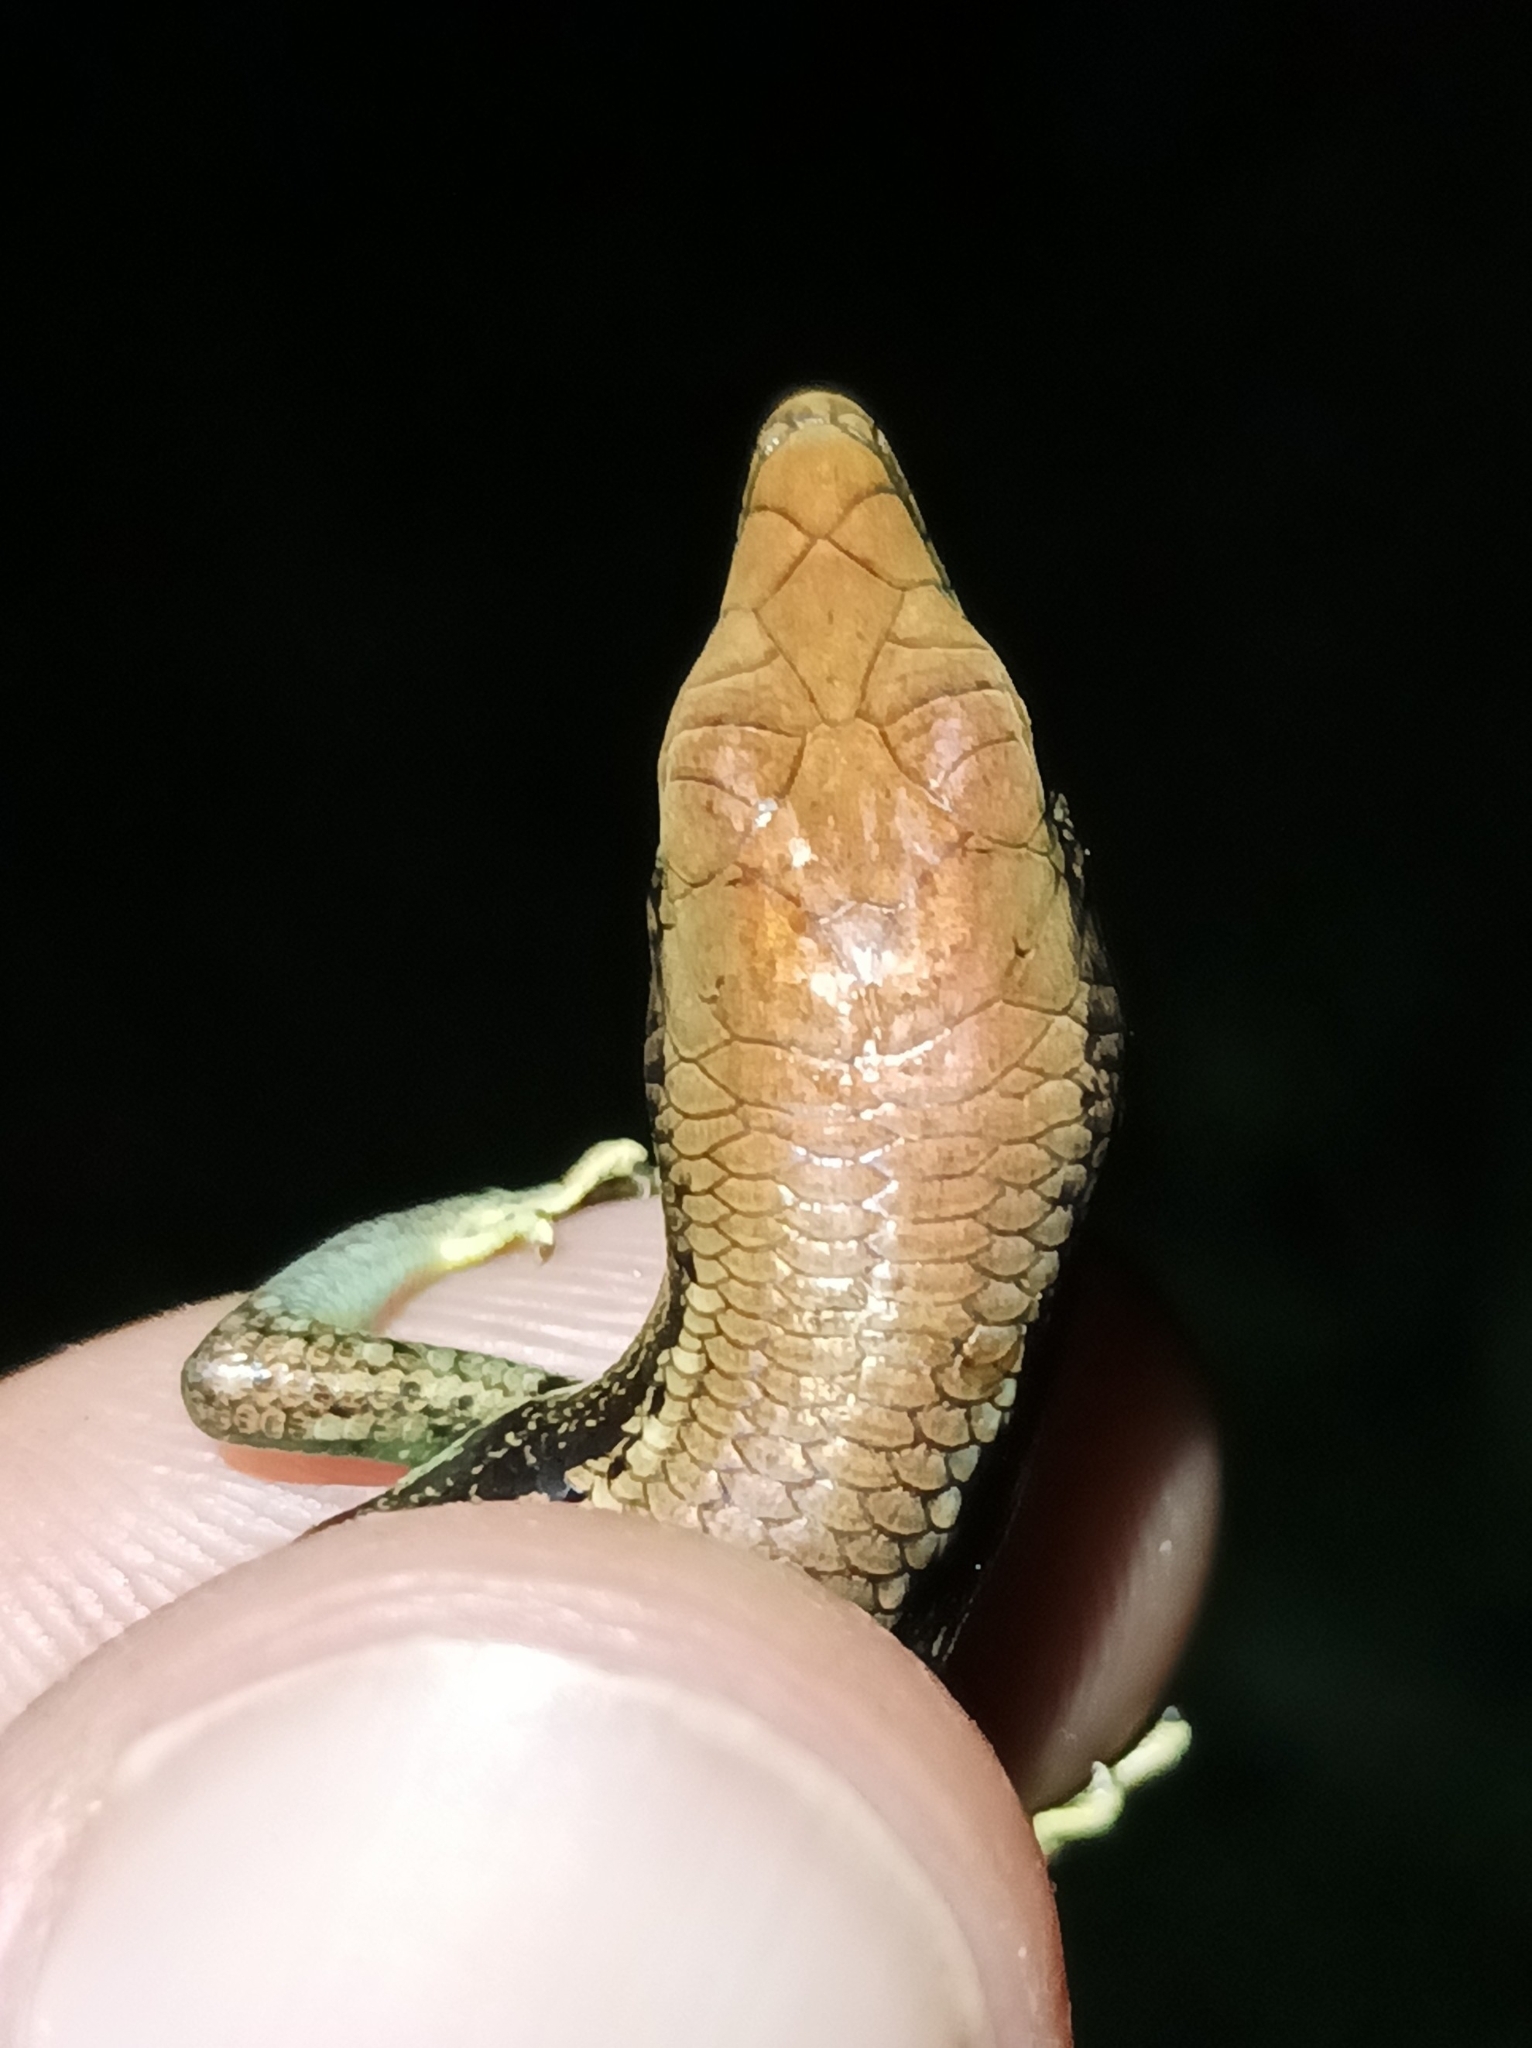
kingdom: Animalia
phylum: Chordata
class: Squamata
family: Scincidae
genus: Emoia
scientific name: Emoia cyanogaster
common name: Teal emo skink
